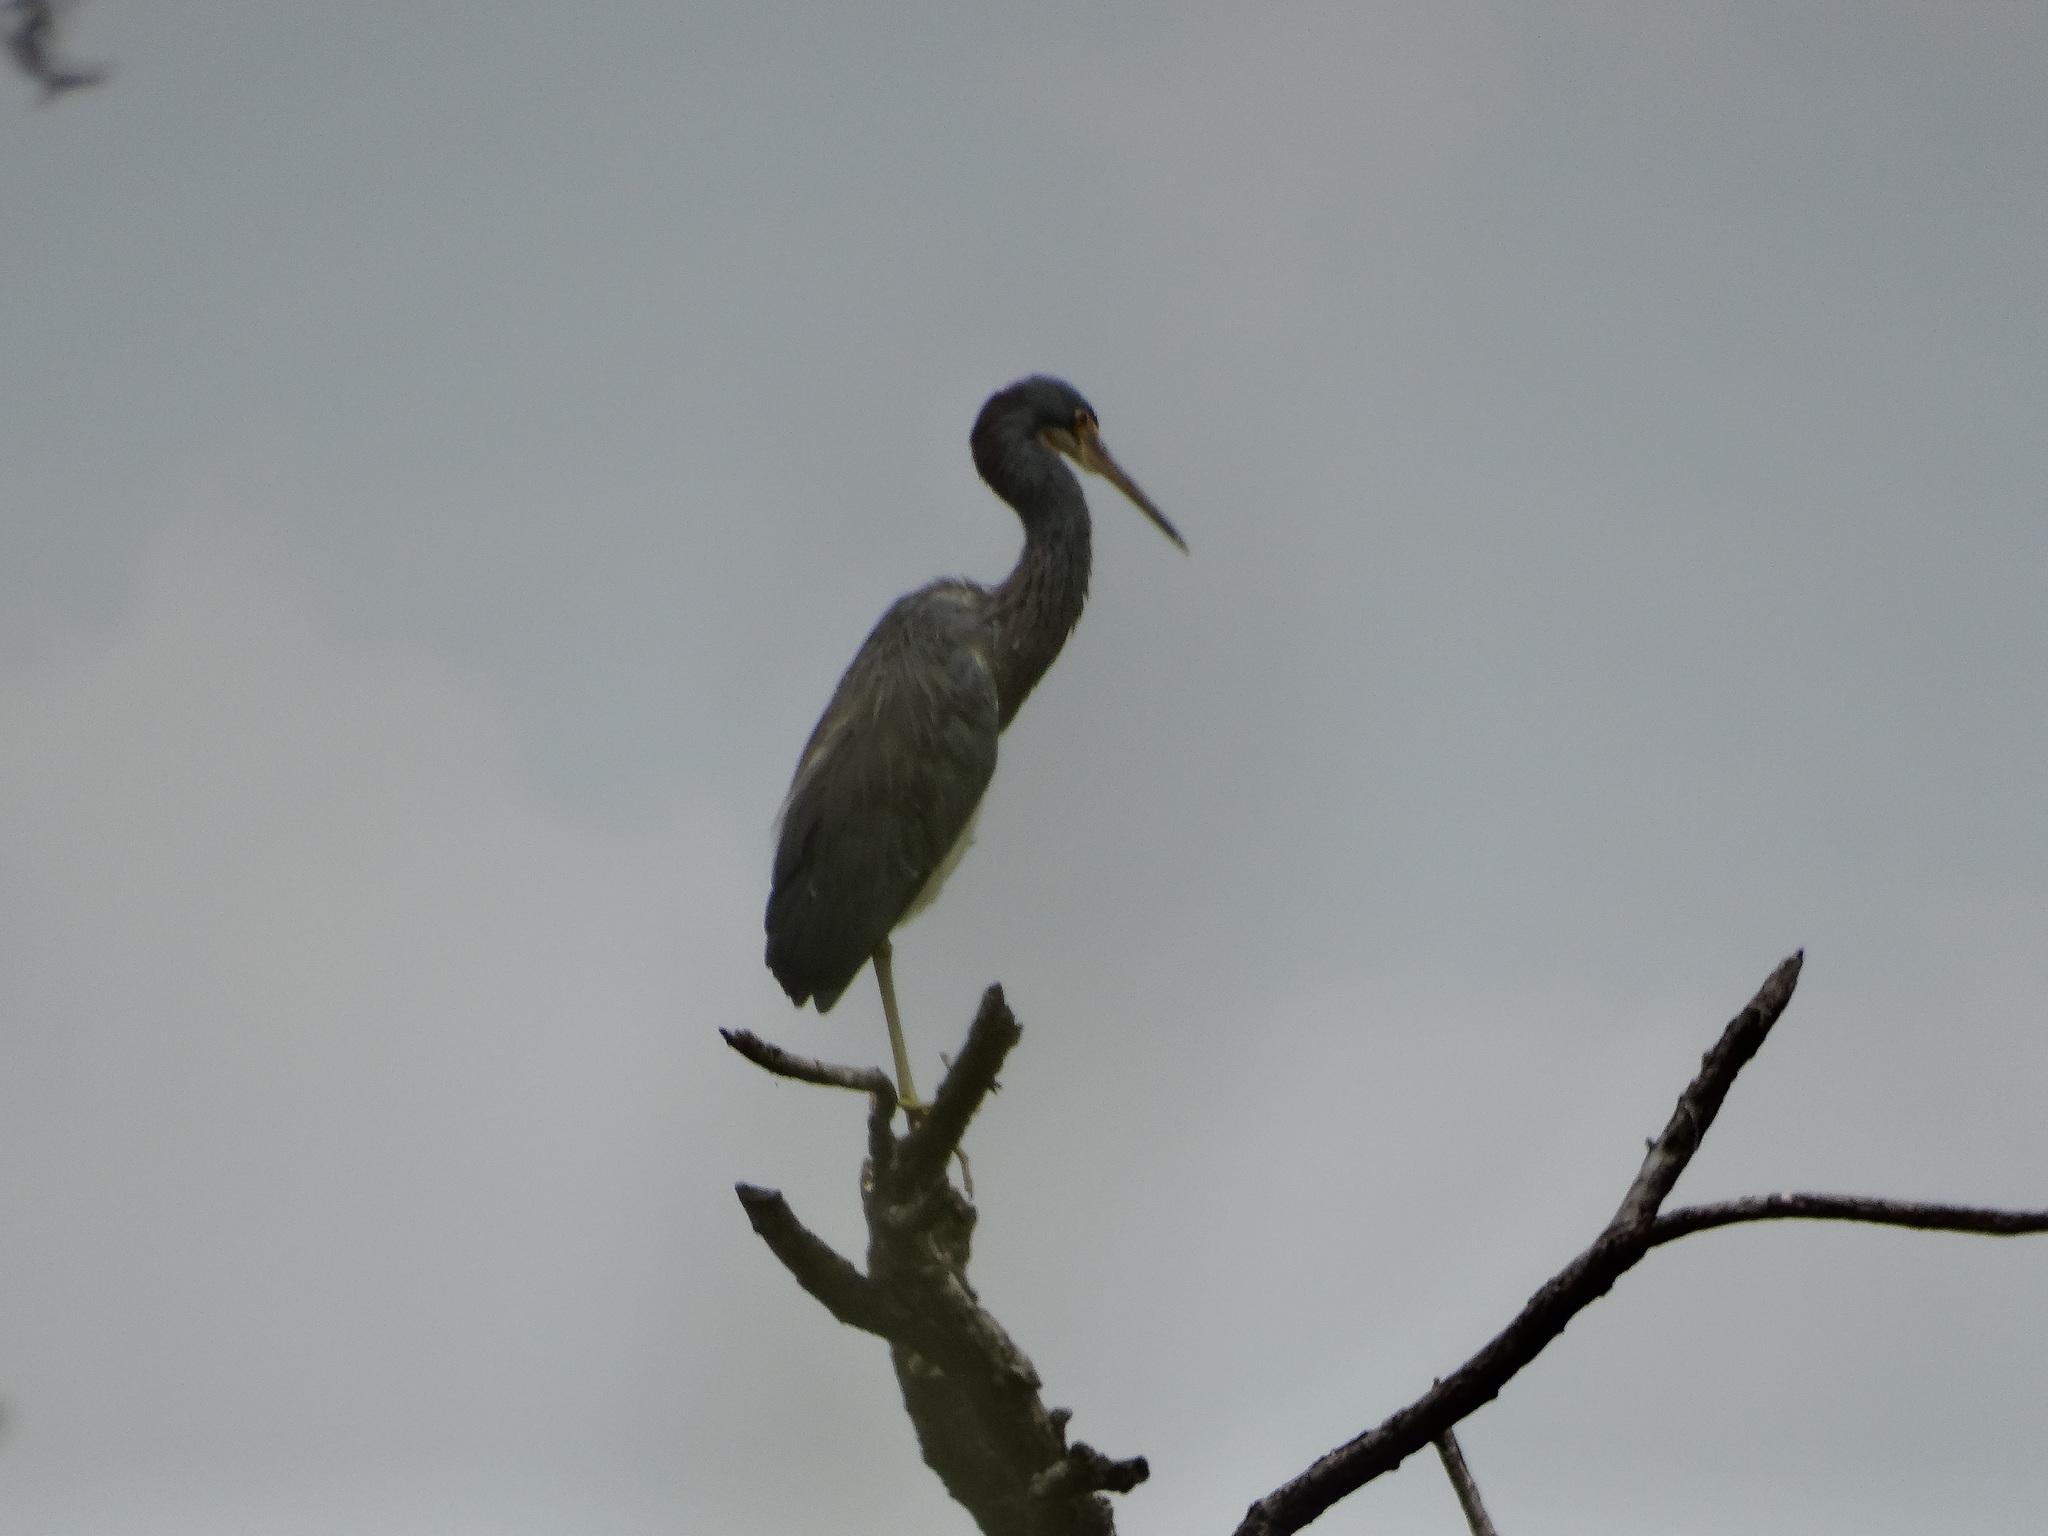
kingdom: Animalia
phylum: Chordata
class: Aves
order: Pelecaniformes
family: Ardeidae
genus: Egretta
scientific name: Egretta tricolor
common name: Tricolored heron
